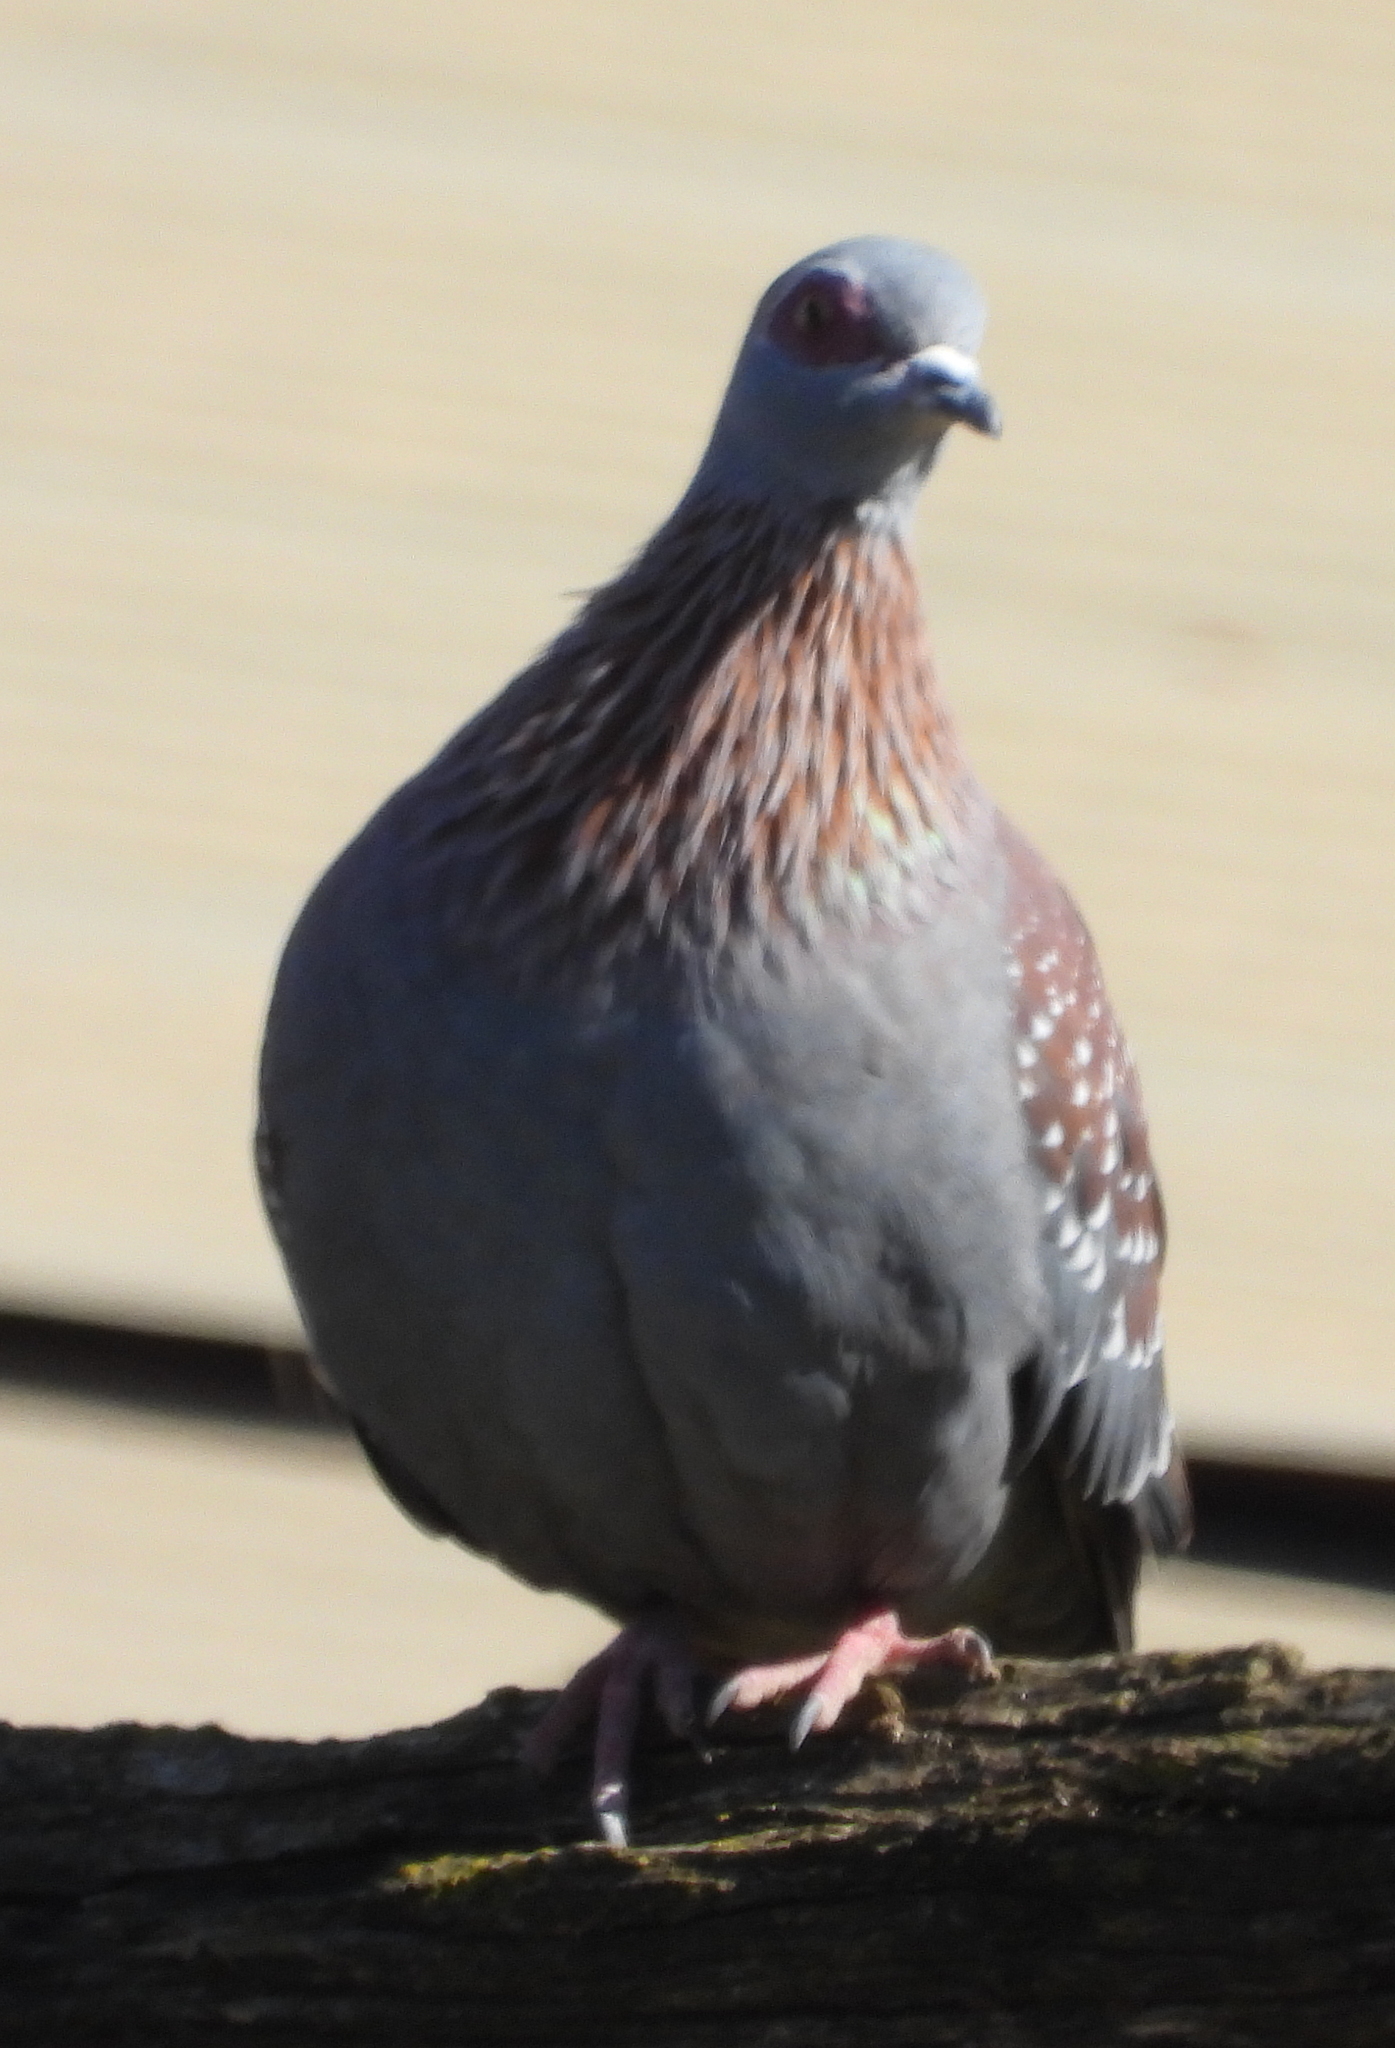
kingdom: Animalia
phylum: Chordata
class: Aves
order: Columbiformes
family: Columbidae
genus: Columba
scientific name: Columba guinea
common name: Speckled pigeon
